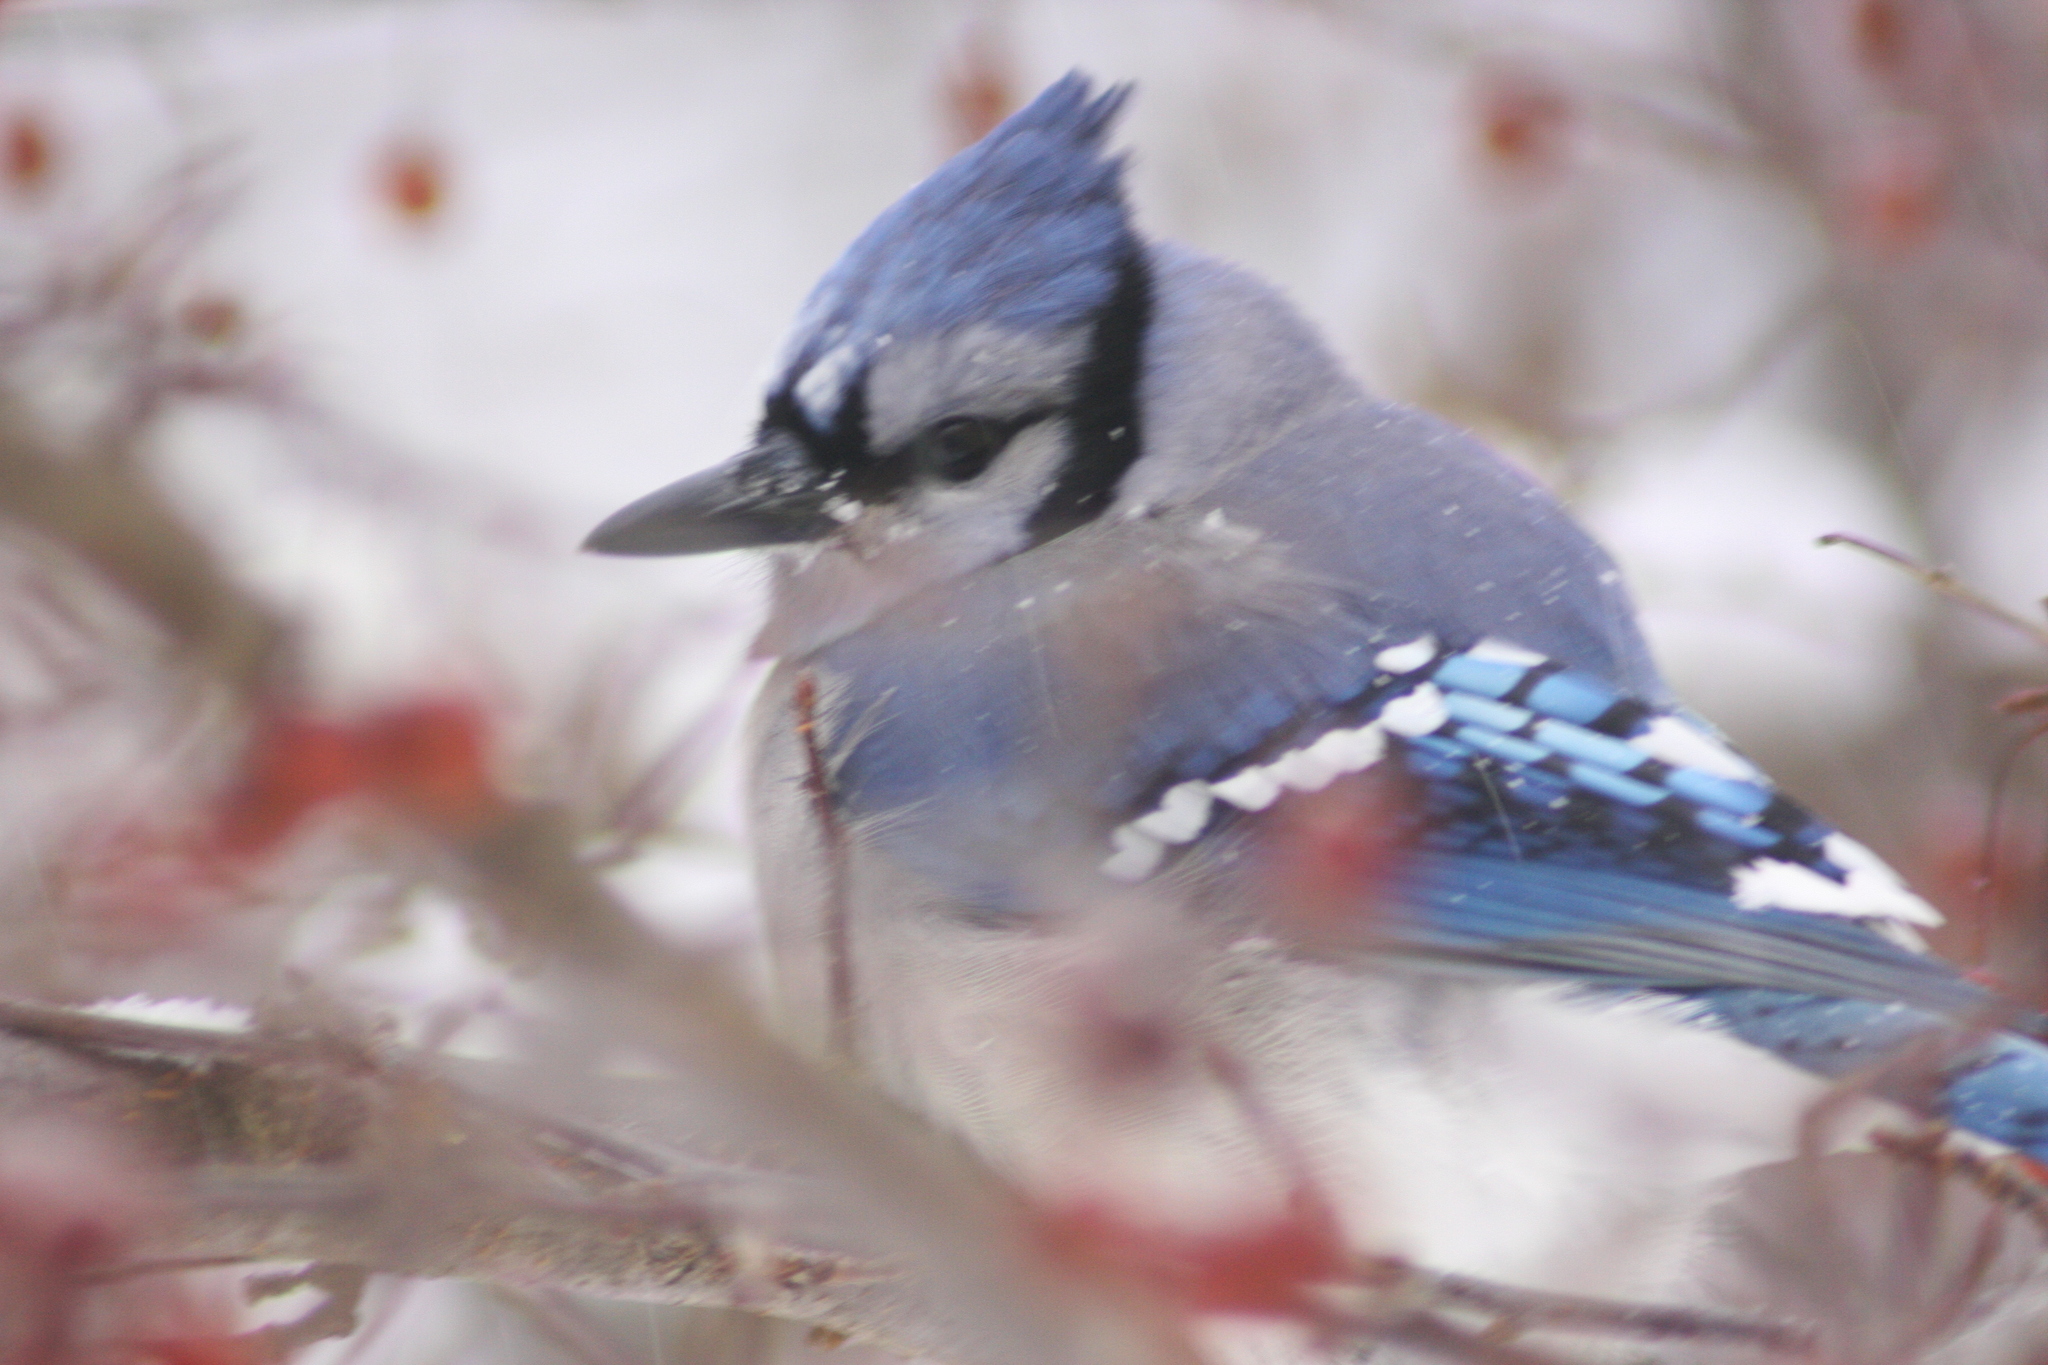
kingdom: Animalia
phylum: Chordata
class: Aves
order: Passeriformes
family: Corvidae
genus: Cyanocitta
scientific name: Cyanocitta cristata
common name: Blue jay
